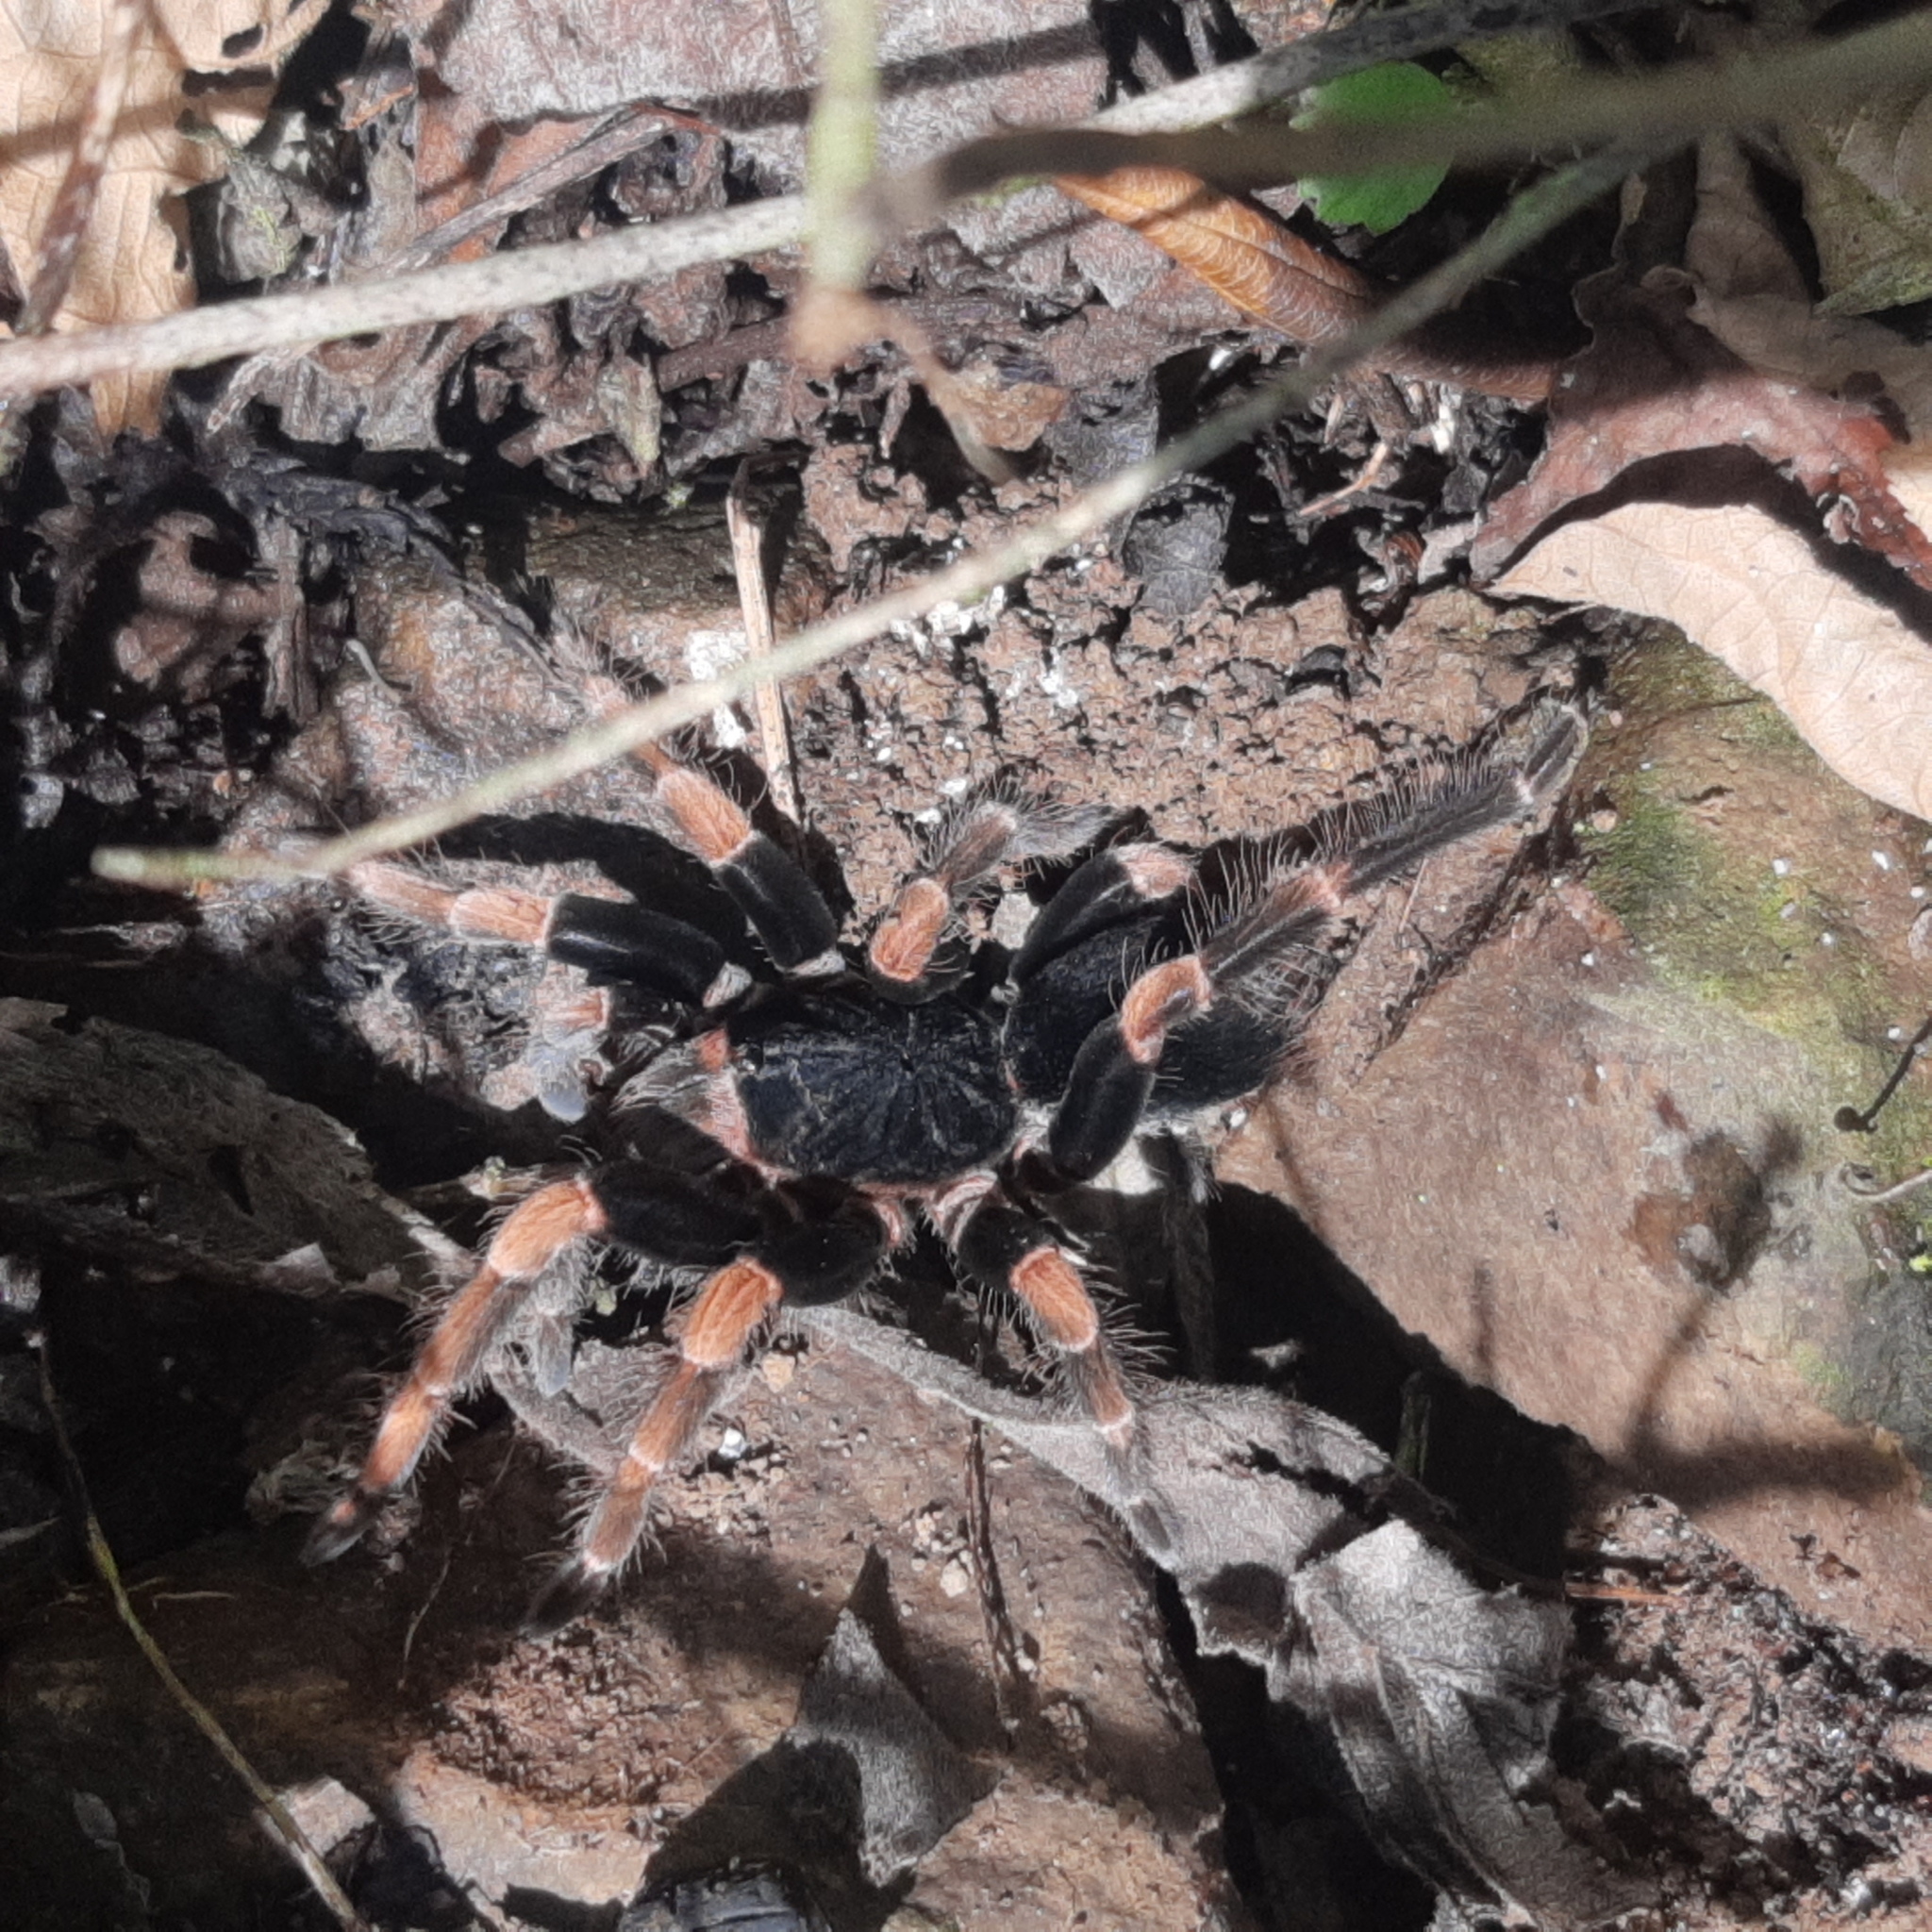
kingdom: Animalia
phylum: Arthropoda
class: Arachnida
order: Araneae
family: Theraphosidae
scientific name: Theraphosidae
